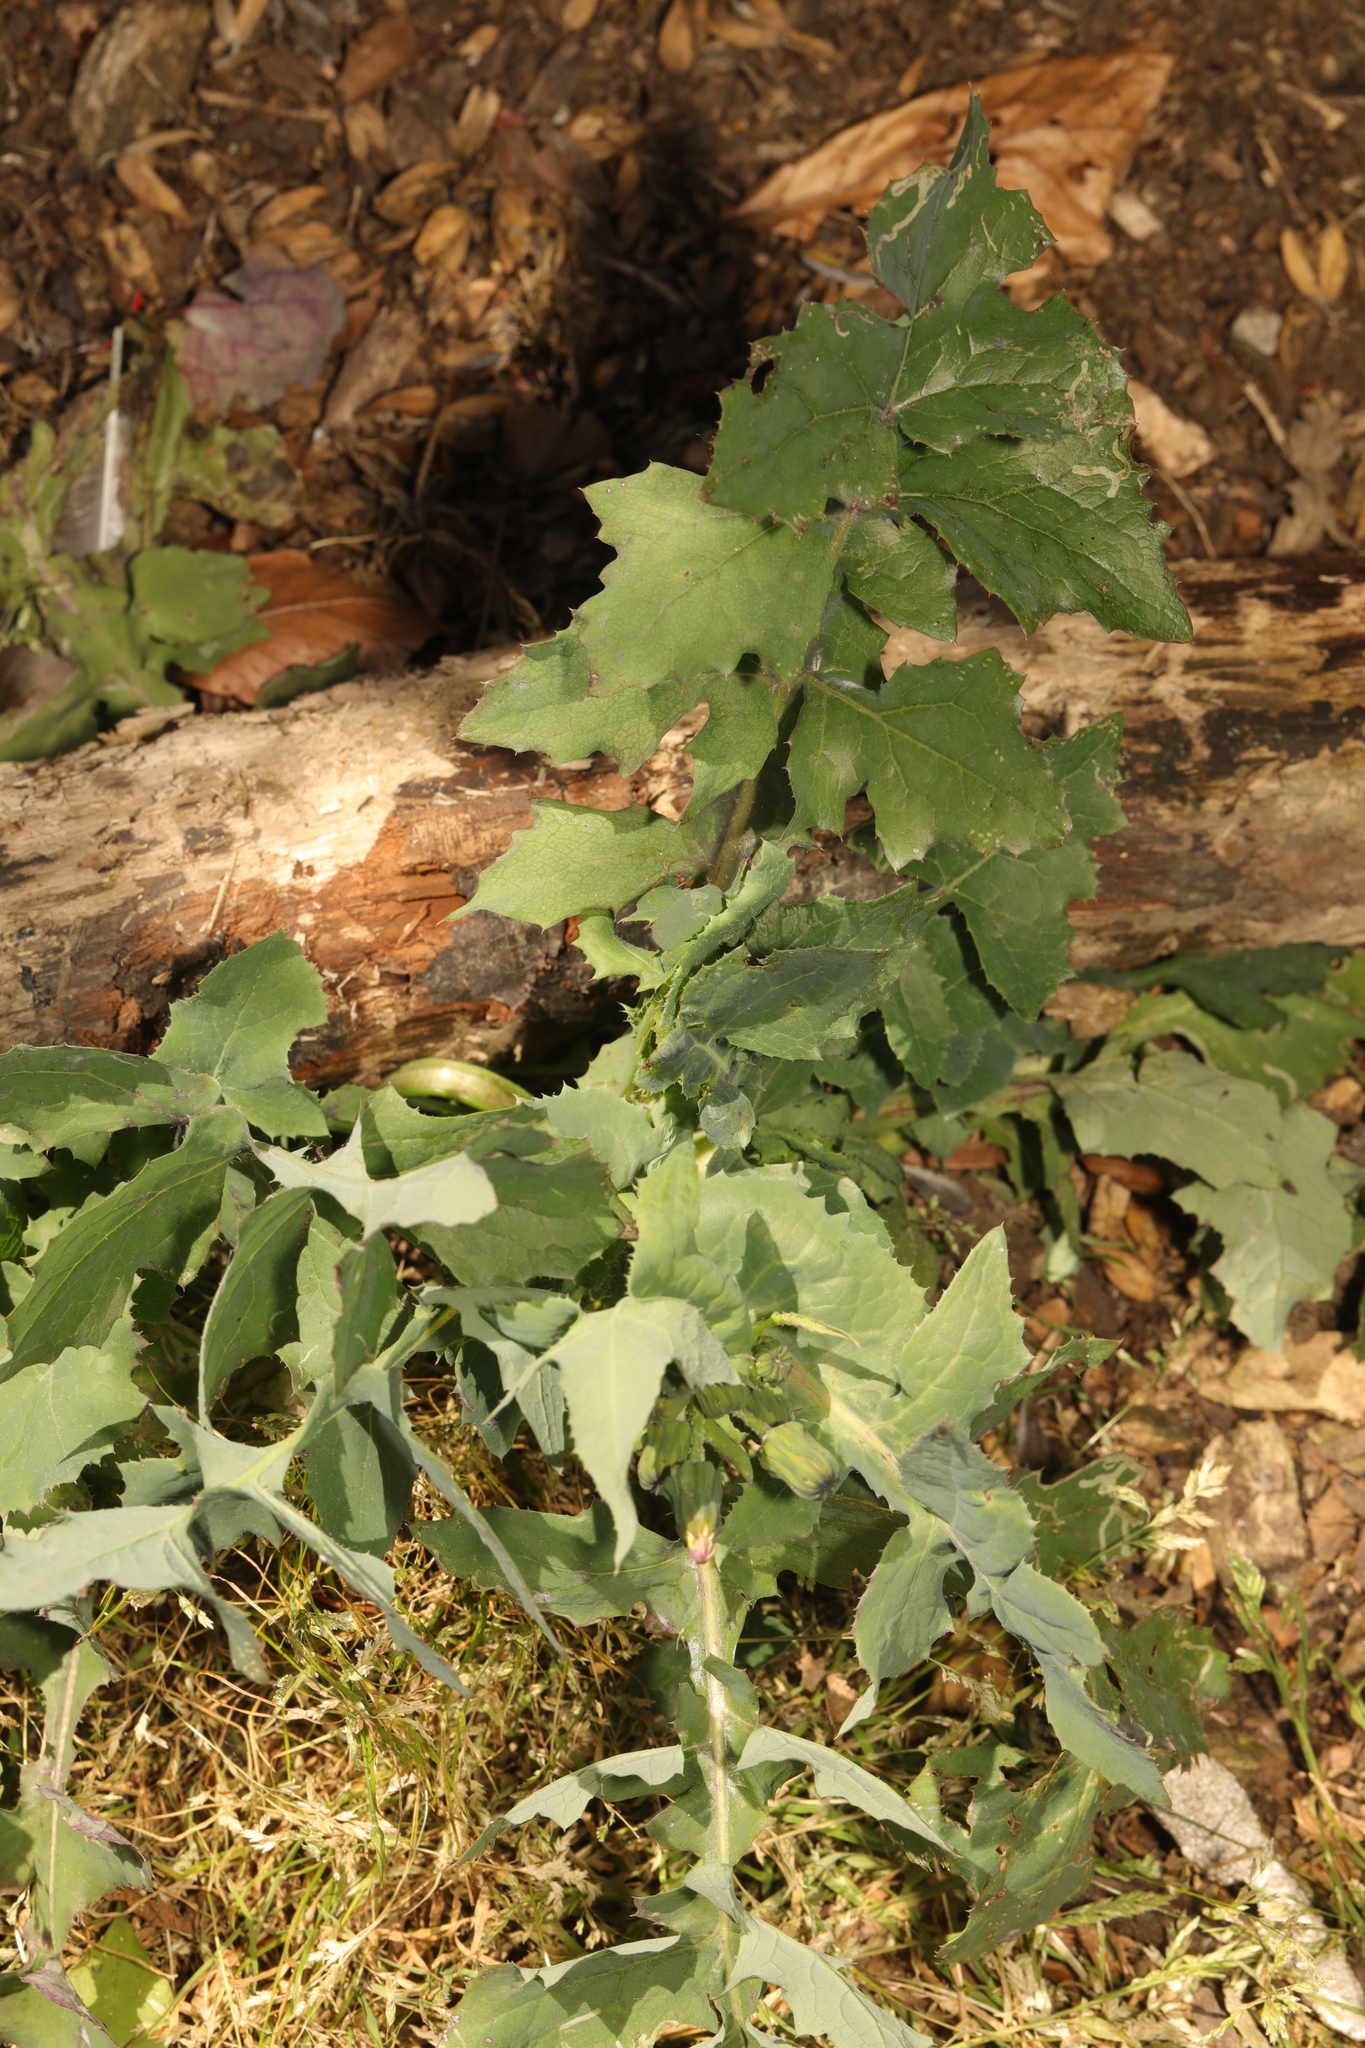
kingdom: Plantae
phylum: Tracheophyta
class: Magnoliopsida
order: Asterales
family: Asteraceae
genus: Sonchus
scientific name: Sonchus oleraceus
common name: Common sowthistle
